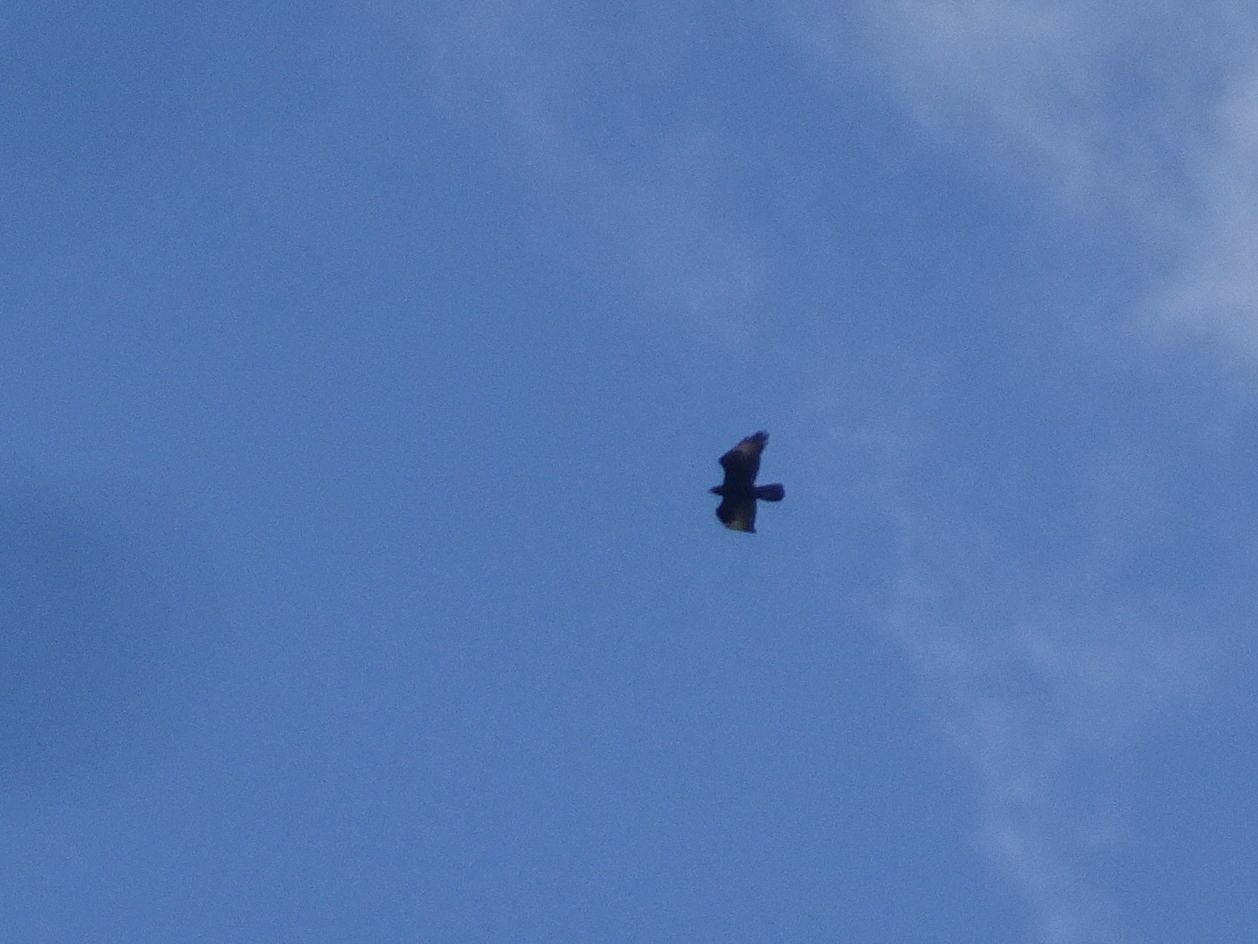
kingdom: Animalia
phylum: Chordata
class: Aves
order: Accipitriformes
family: Accipitridae
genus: Aquila
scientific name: Aquila verreauxii
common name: Verreaux's eagle
